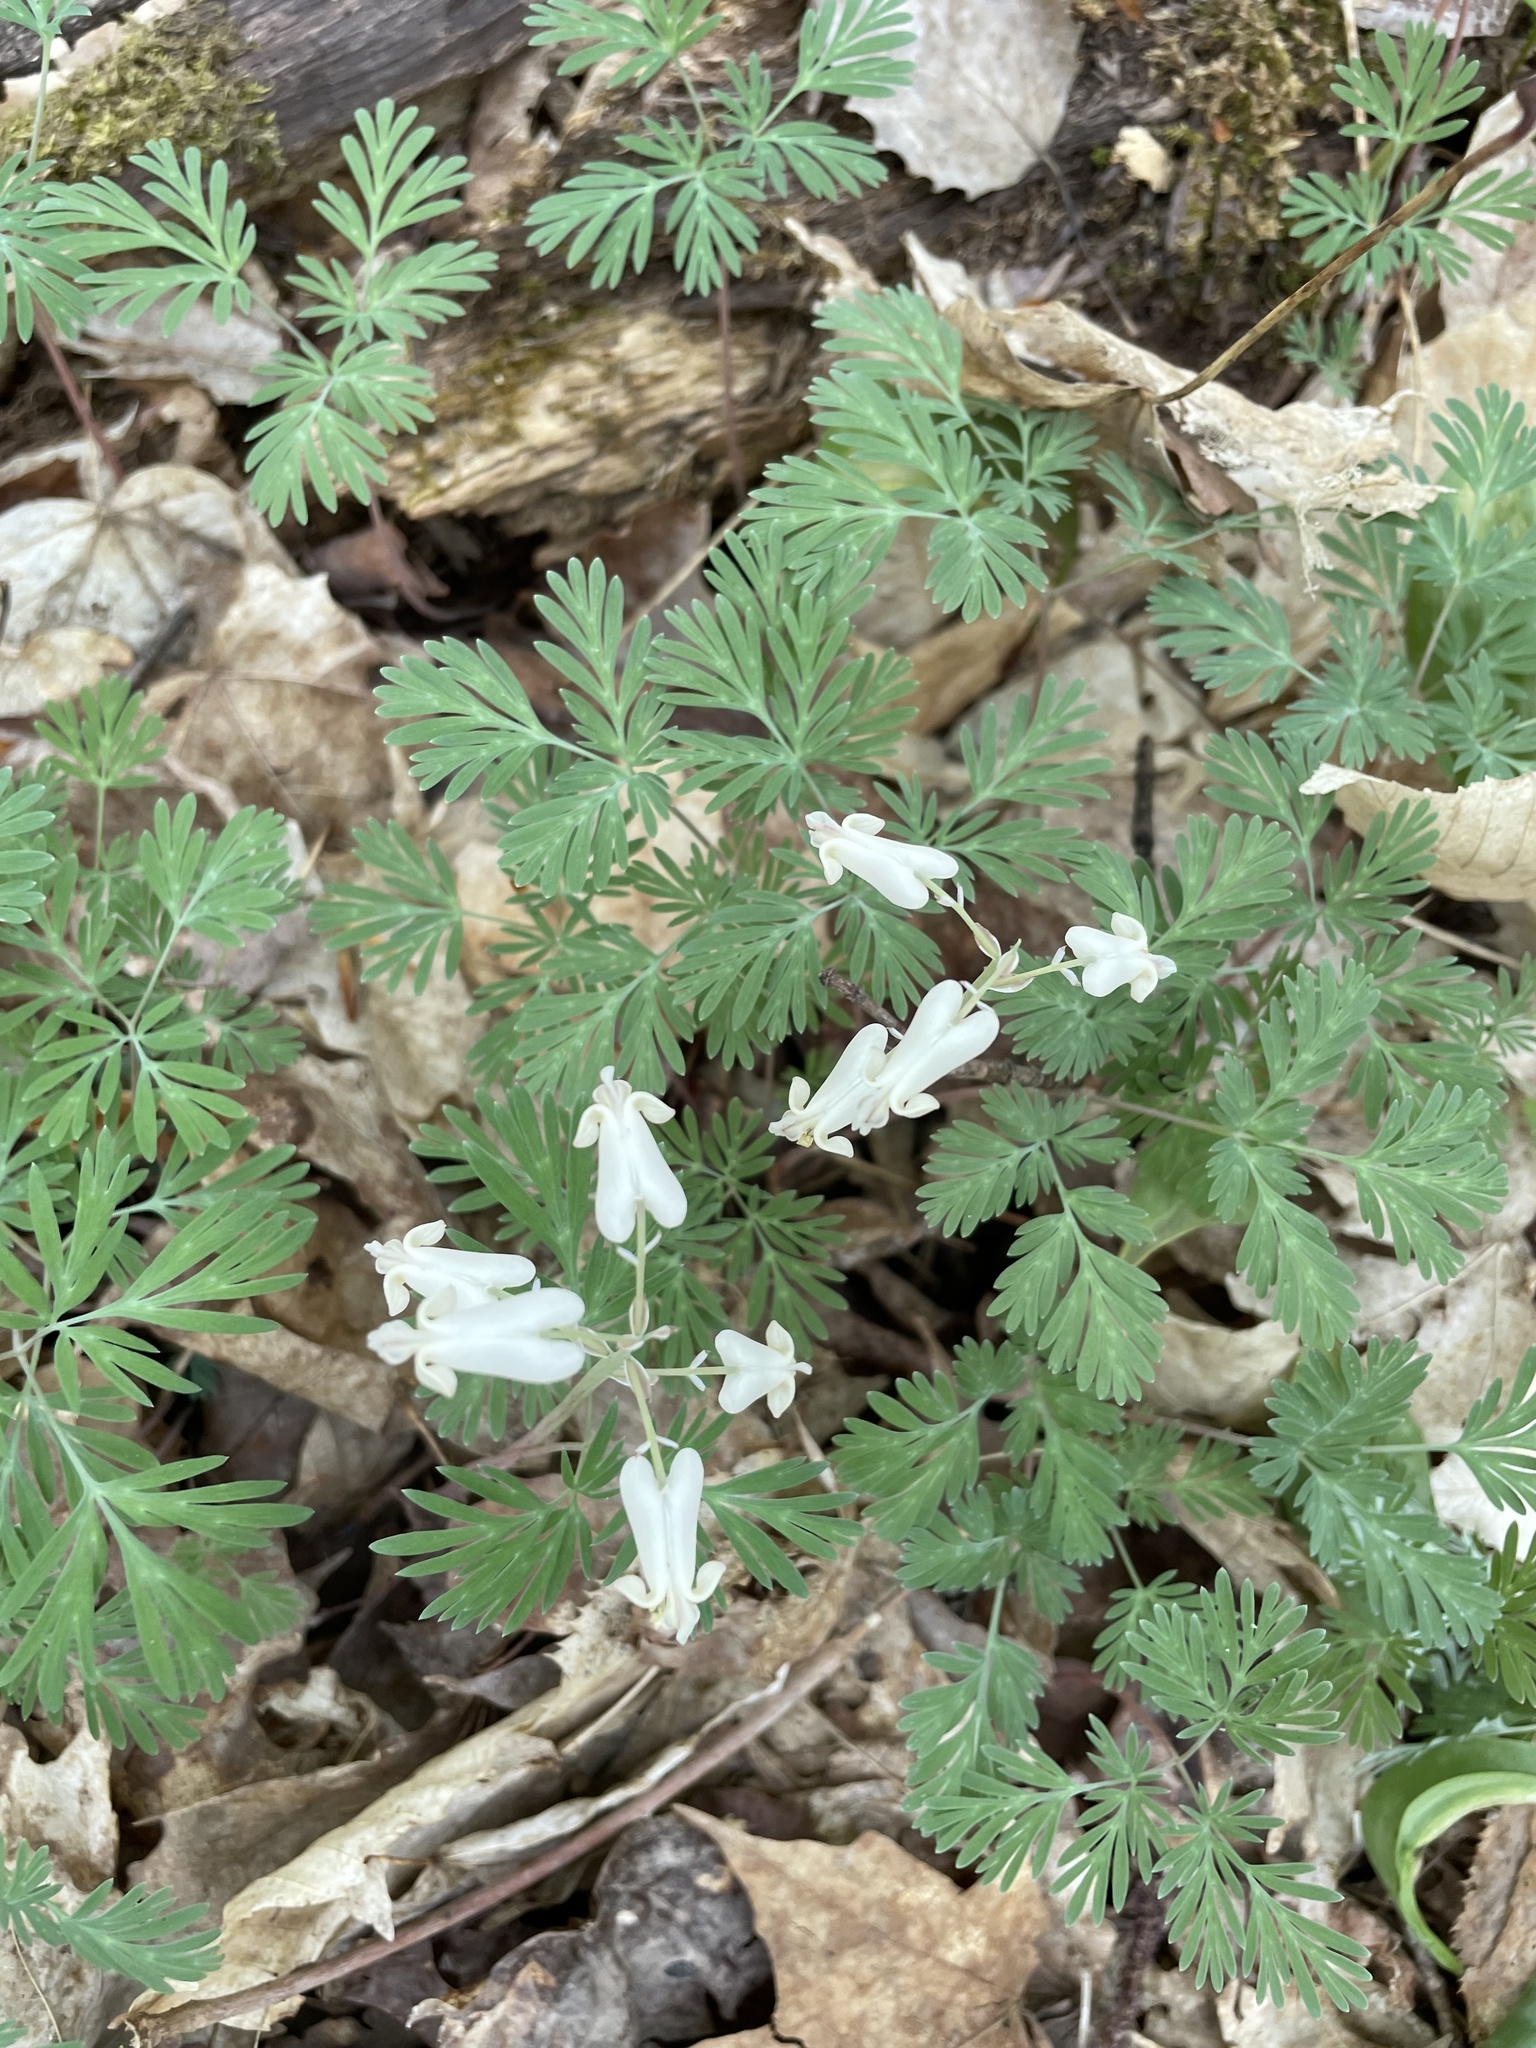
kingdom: Plantae
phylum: Tracheophyta
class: Magnoliopsida
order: Ranunculales
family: Papaveraceae
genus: Dicentra
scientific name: Dicentra canadensis
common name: Squirrel-corn
